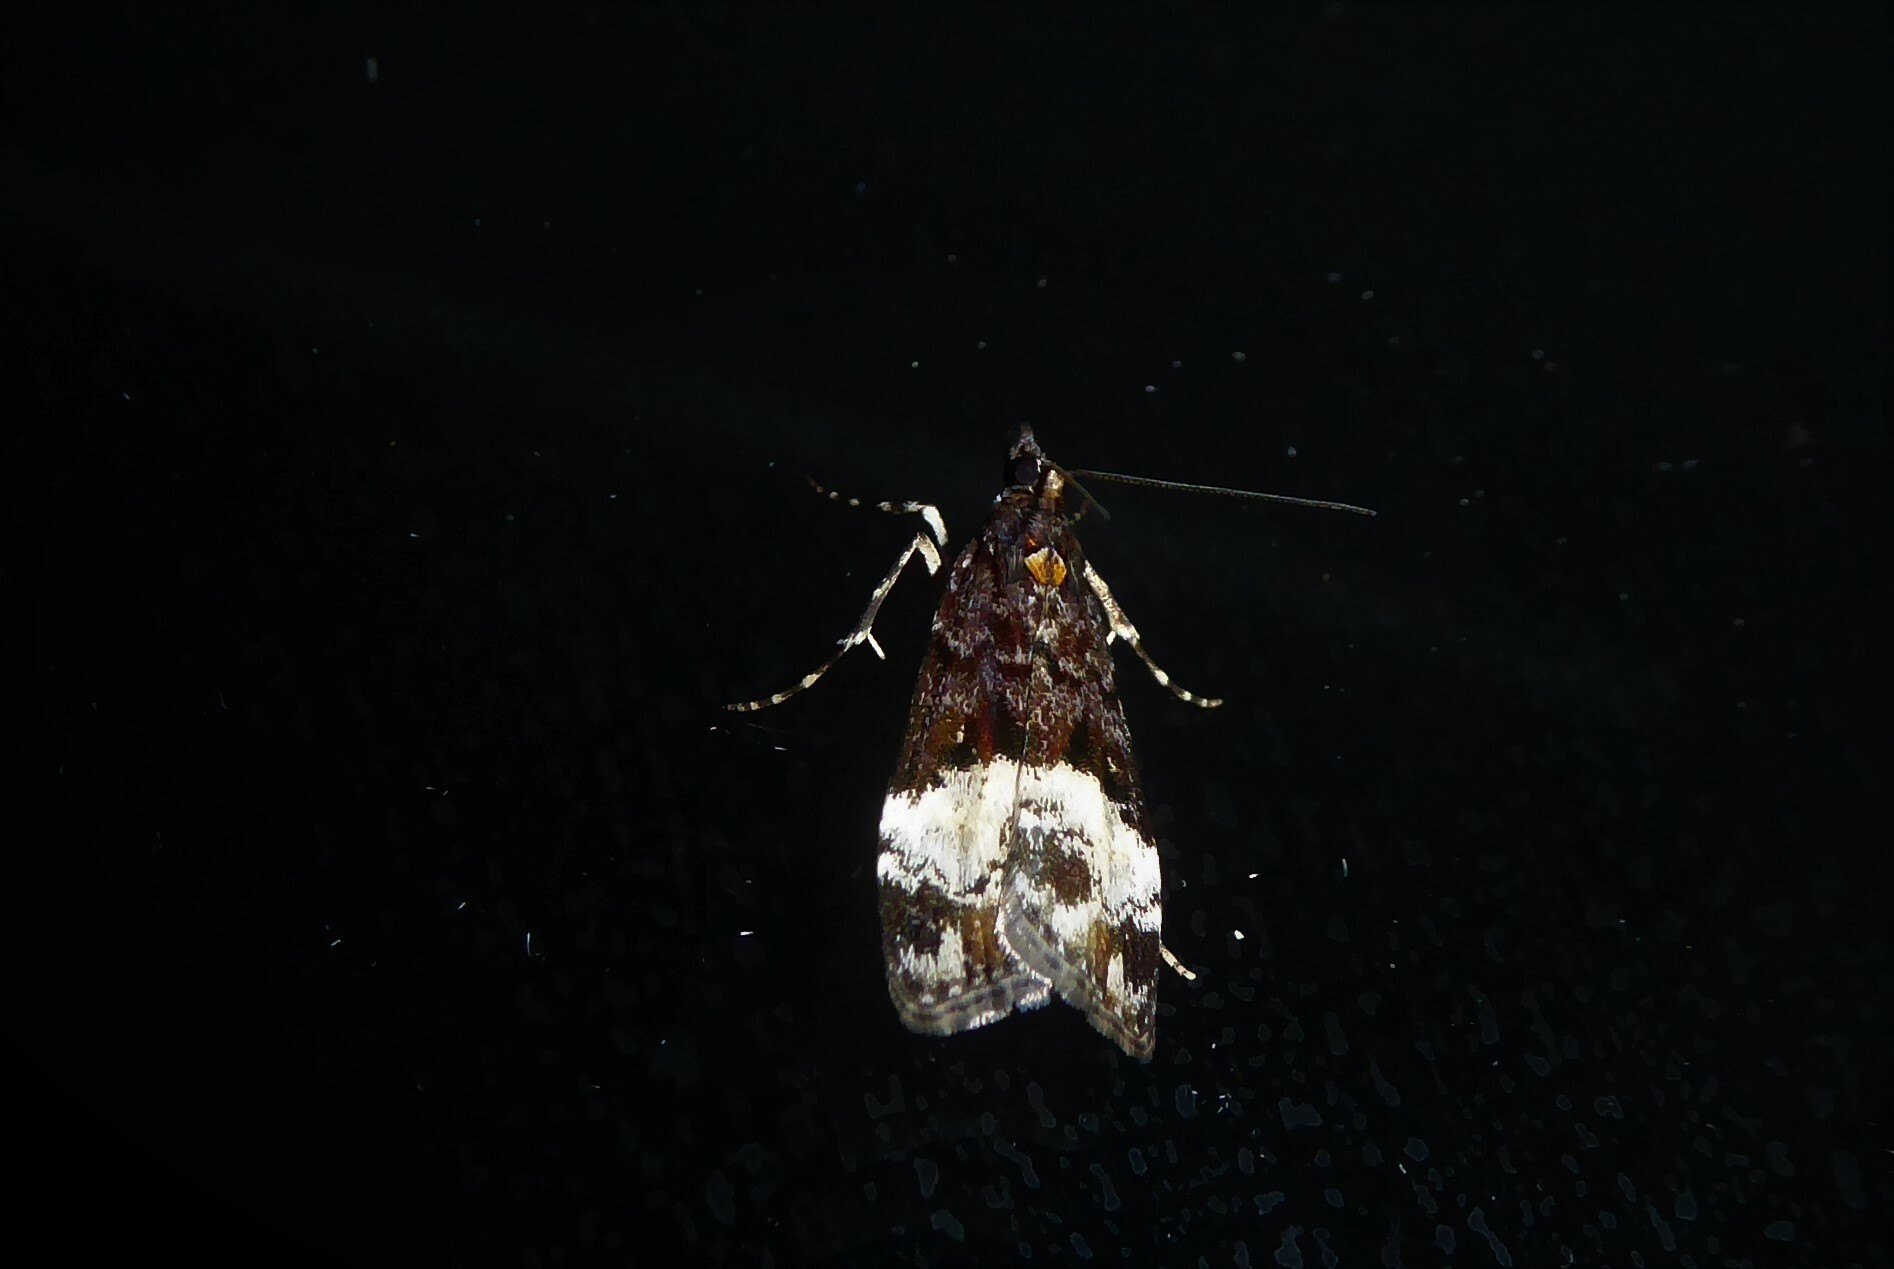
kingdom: Animalia
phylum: Arthropoda
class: Insecta
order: Lepidoptera
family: Crambidae
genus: Scoparia
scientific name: Scoparia minusculalis
